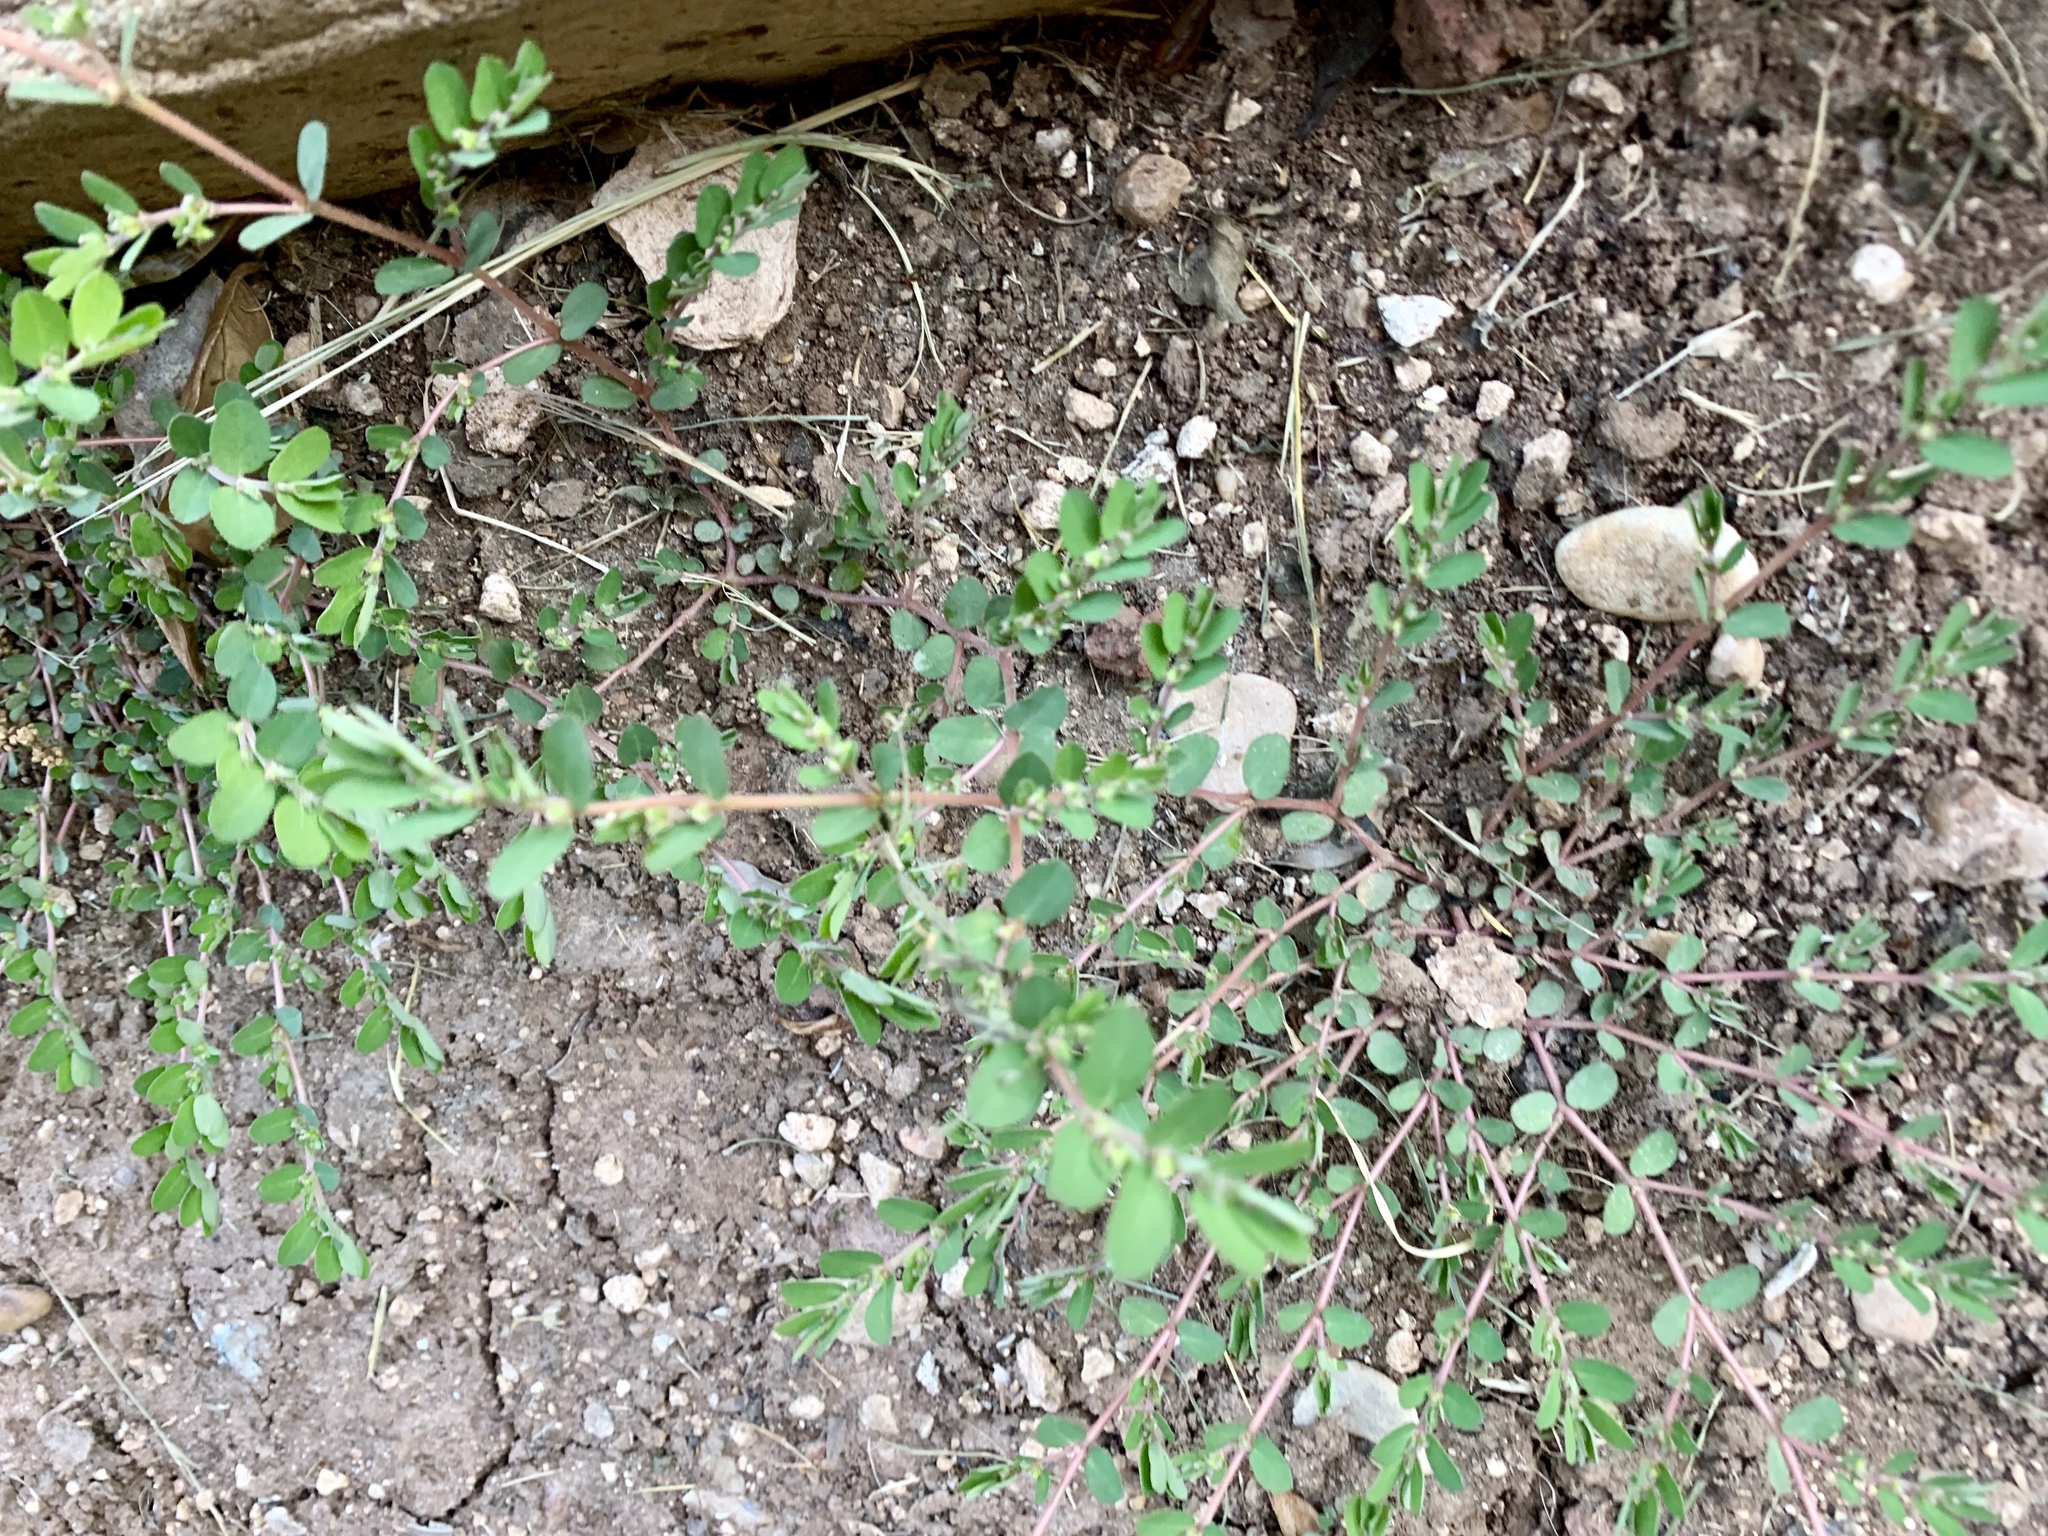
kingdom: Plantae
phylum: Tracheophyta
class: Magnoliopsida
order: Malpighiales
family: Euphorbiaceae
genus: Euphorbia
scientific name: Euphorbia prostrata
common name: Prostrate sandmat
